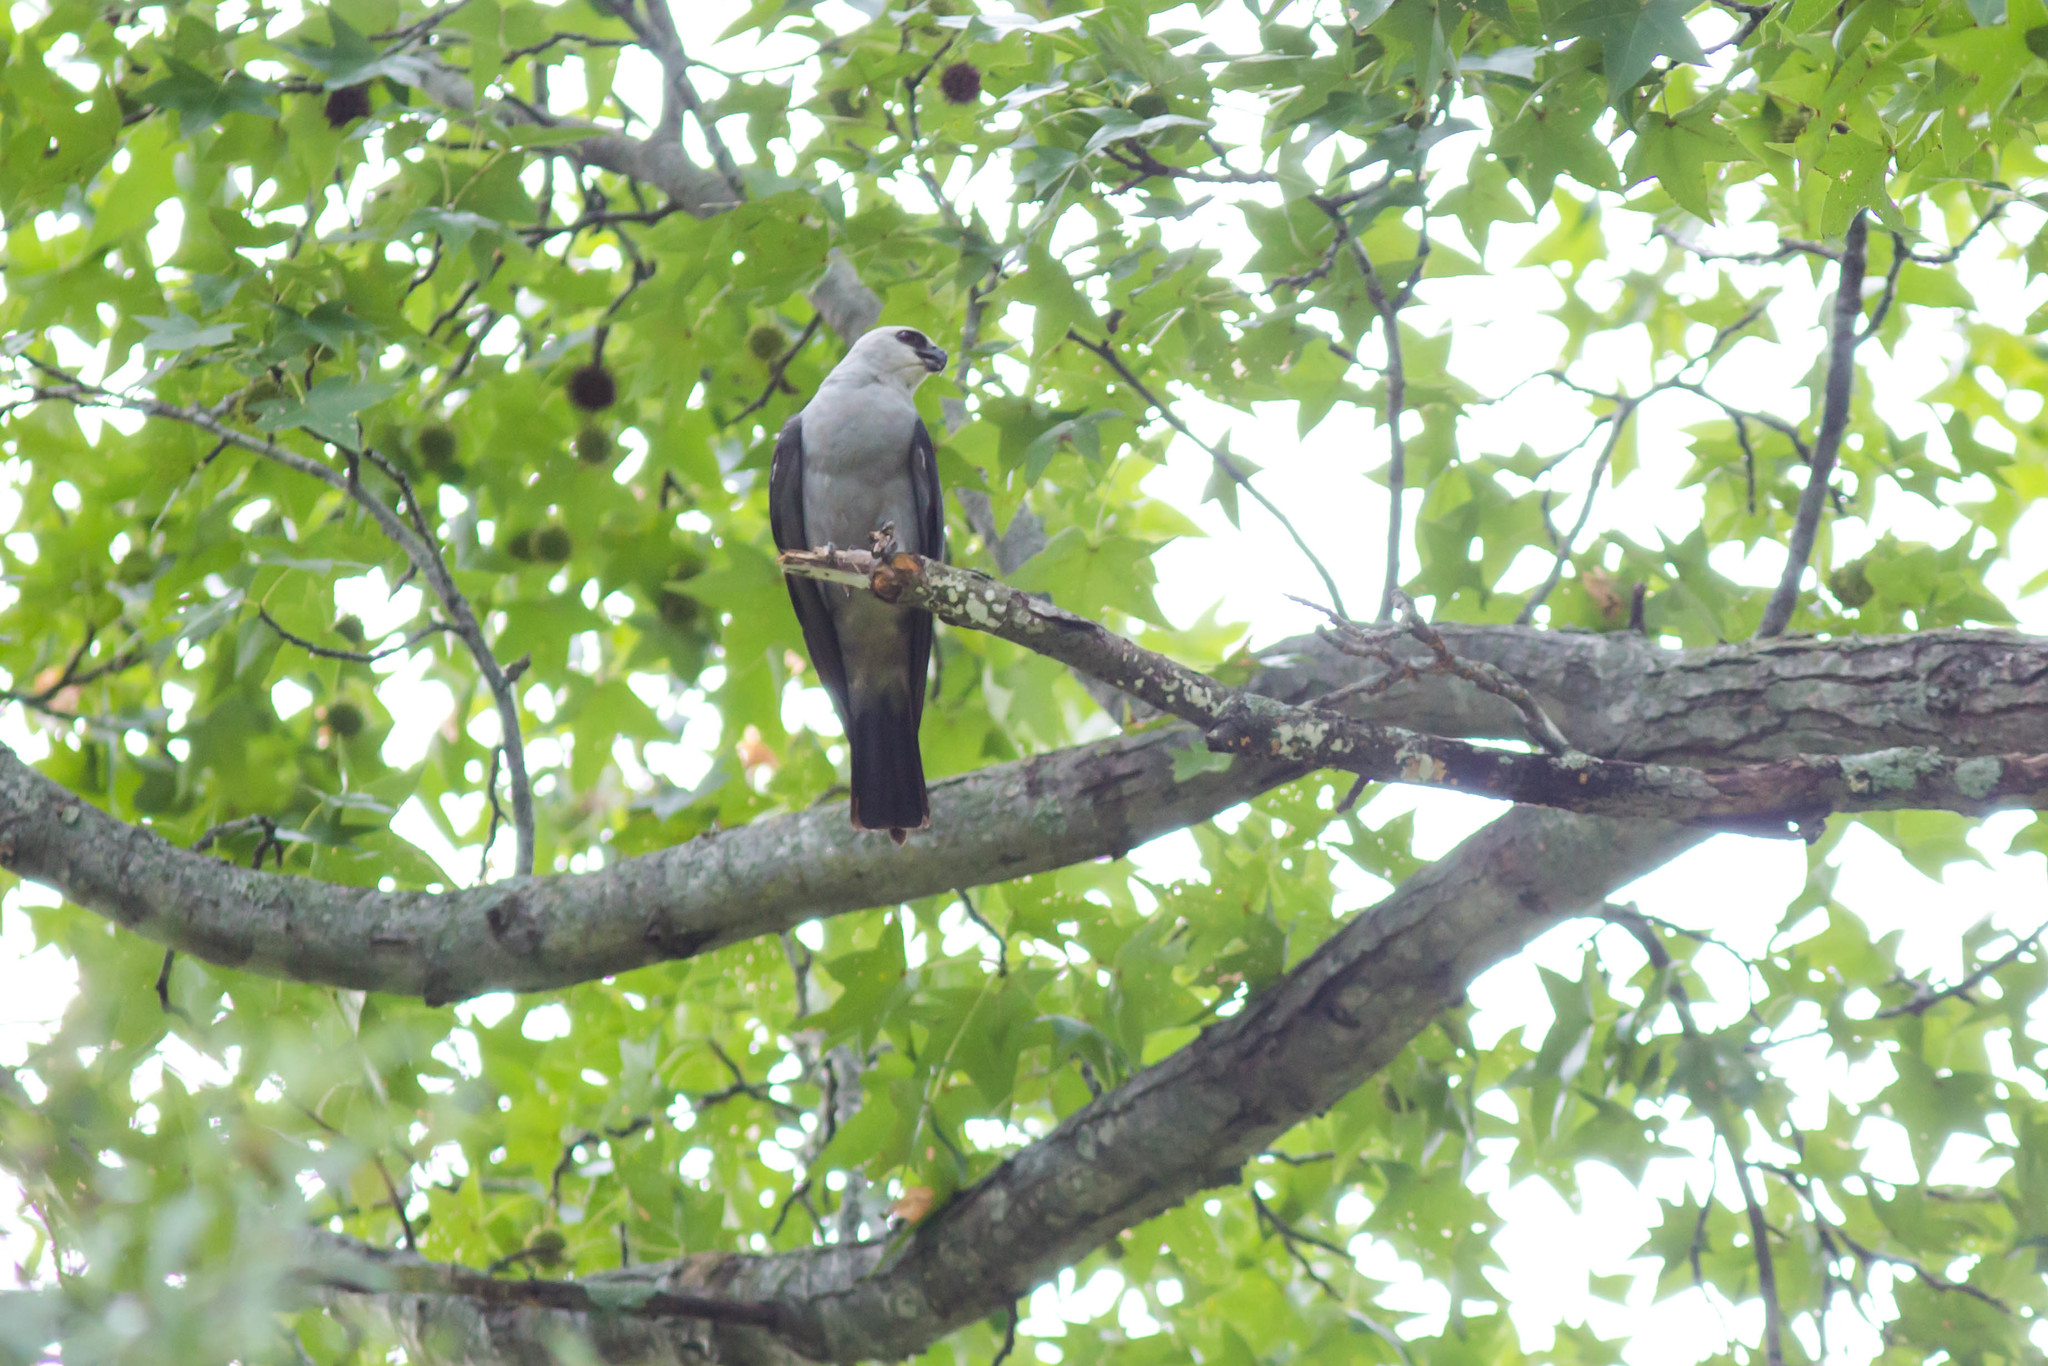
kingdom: Animalia
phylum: Chordata
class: Aves
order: Accipitriformes
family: Accipitridae
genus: Ictinia
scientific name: Ictinia mississippiensis
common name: Mississippi kite
